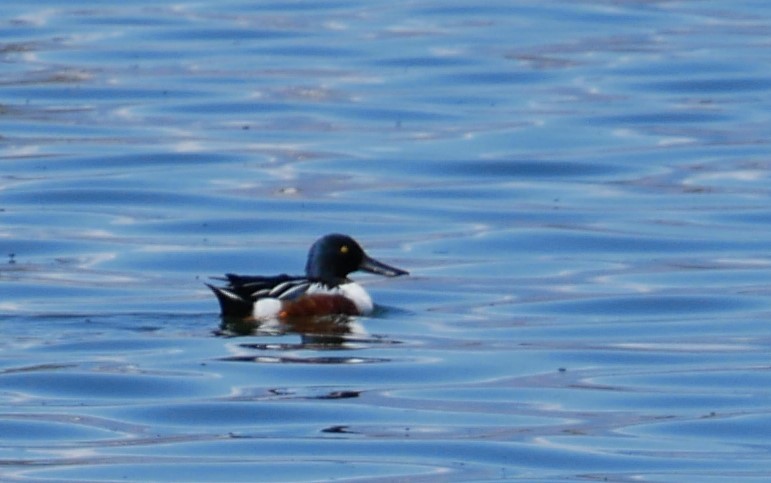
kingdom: Animalia
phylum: Chordata
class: Aves
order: Anseriformes
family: Anatidae
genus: Spatula
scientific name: Spatula clypeata
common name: Northern shoveler
